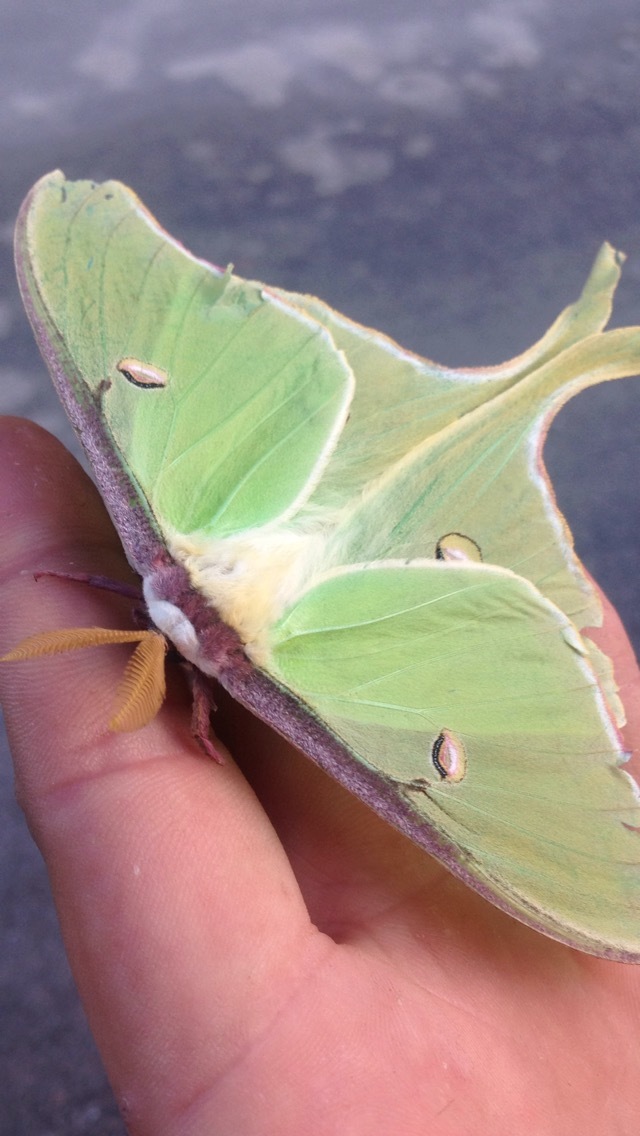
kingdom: Animalia
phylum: Arthropoda
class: Insecta
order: Lepidoptera
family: Saturniidae
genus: Actias
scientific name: Actias luna
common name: Luna moth
